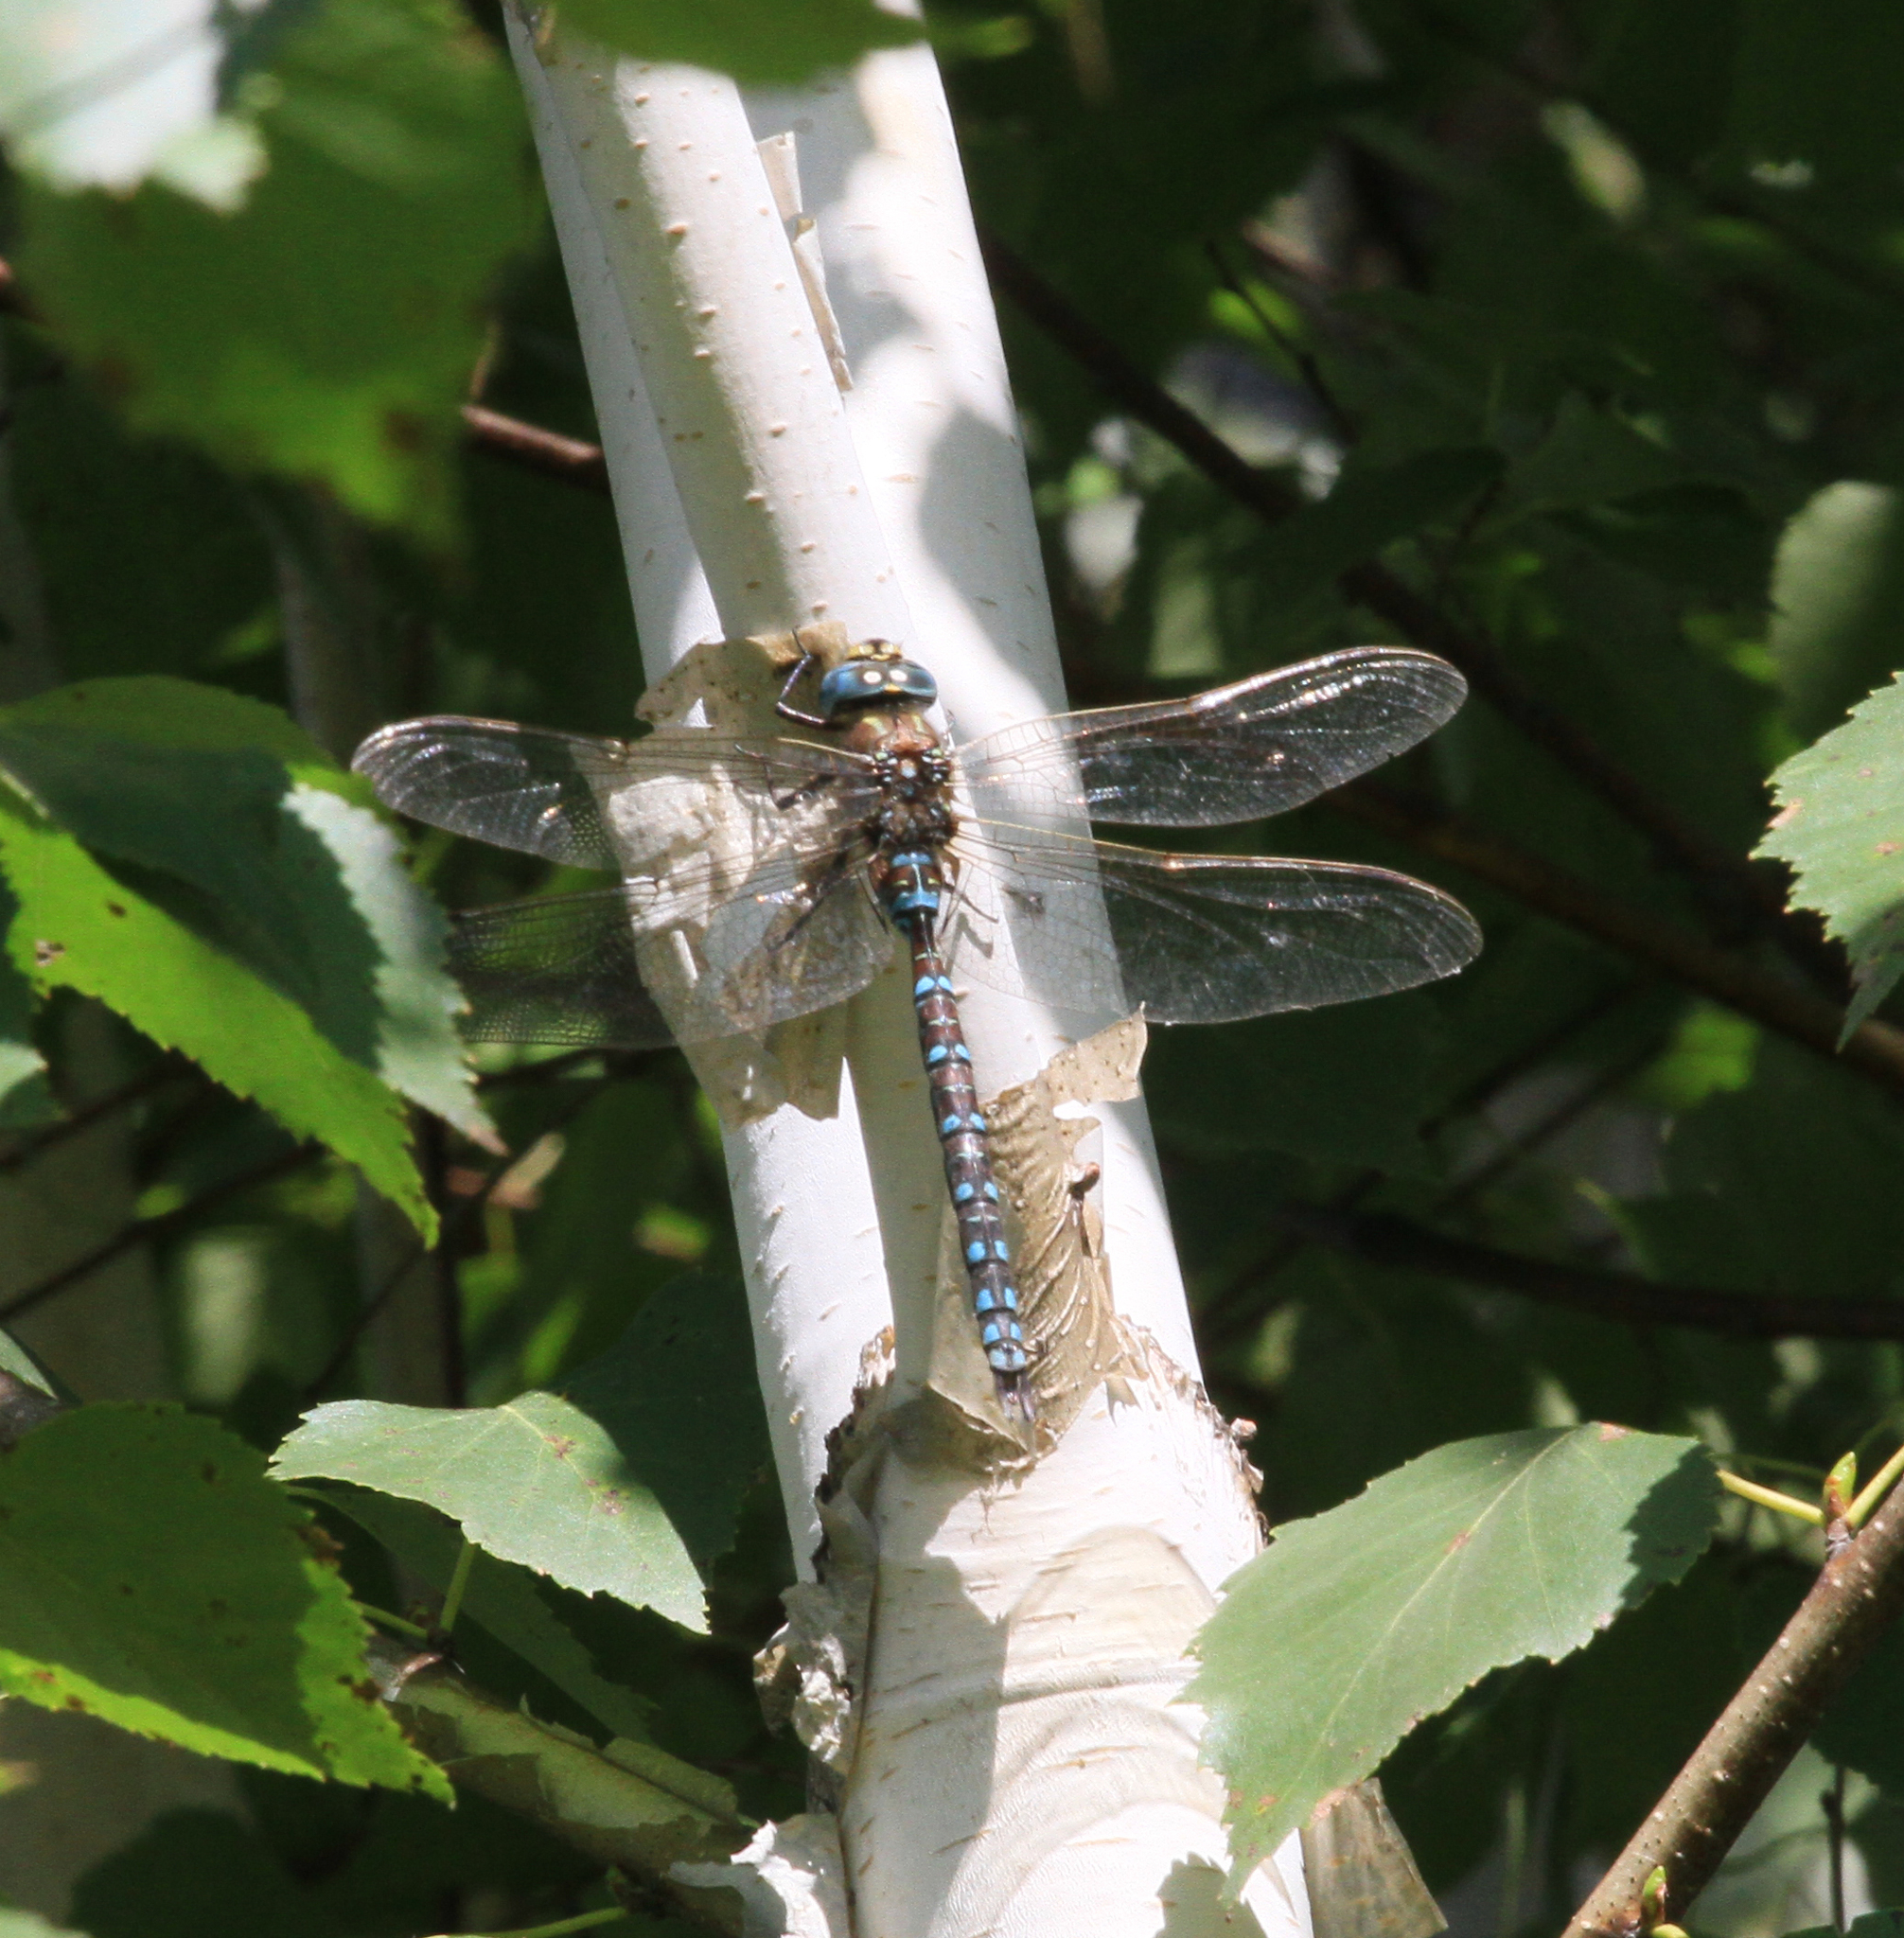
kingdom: Animalia
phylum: Arthropoda
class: Insecta
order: Odonata
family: Aeshnidae
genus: Aeshna
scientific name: Aeshna juncea
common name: Moorland hawker
